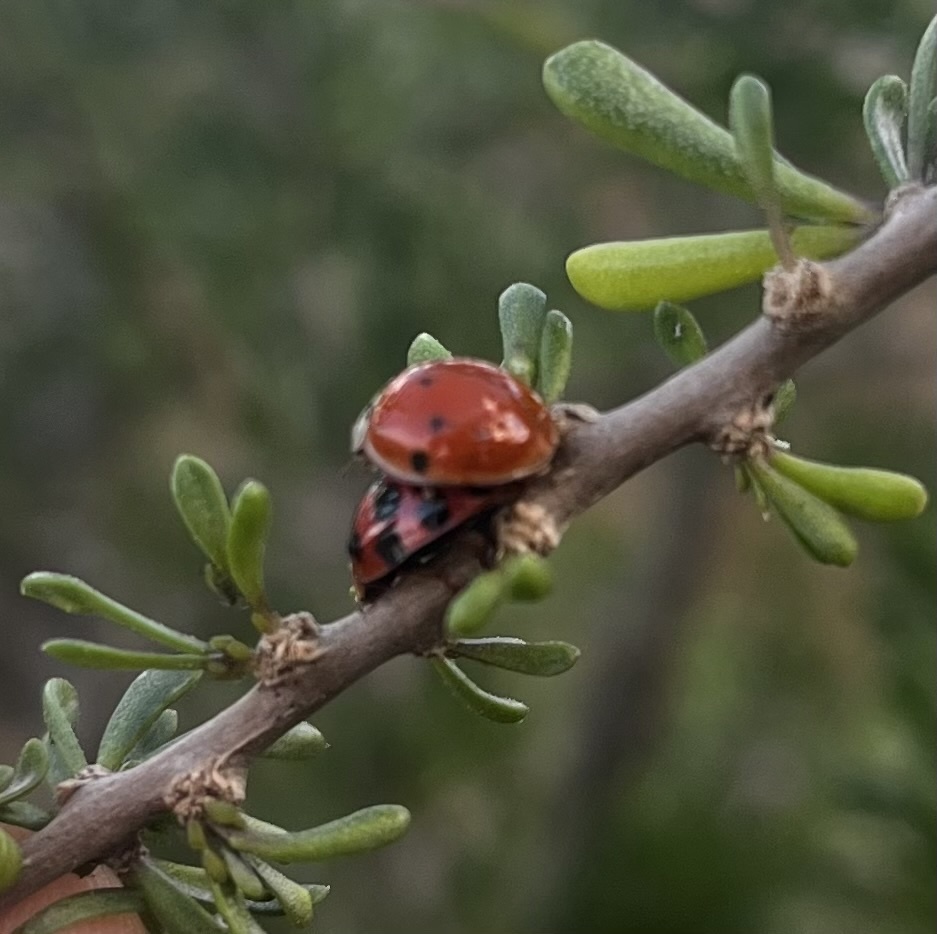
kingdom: Animalia
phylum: Arthropoda
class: Insecta
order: Coleoptera
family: Coccinellidae
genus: Harmonia
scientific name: Harmonia axyridis
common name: Harlequin ladybird
